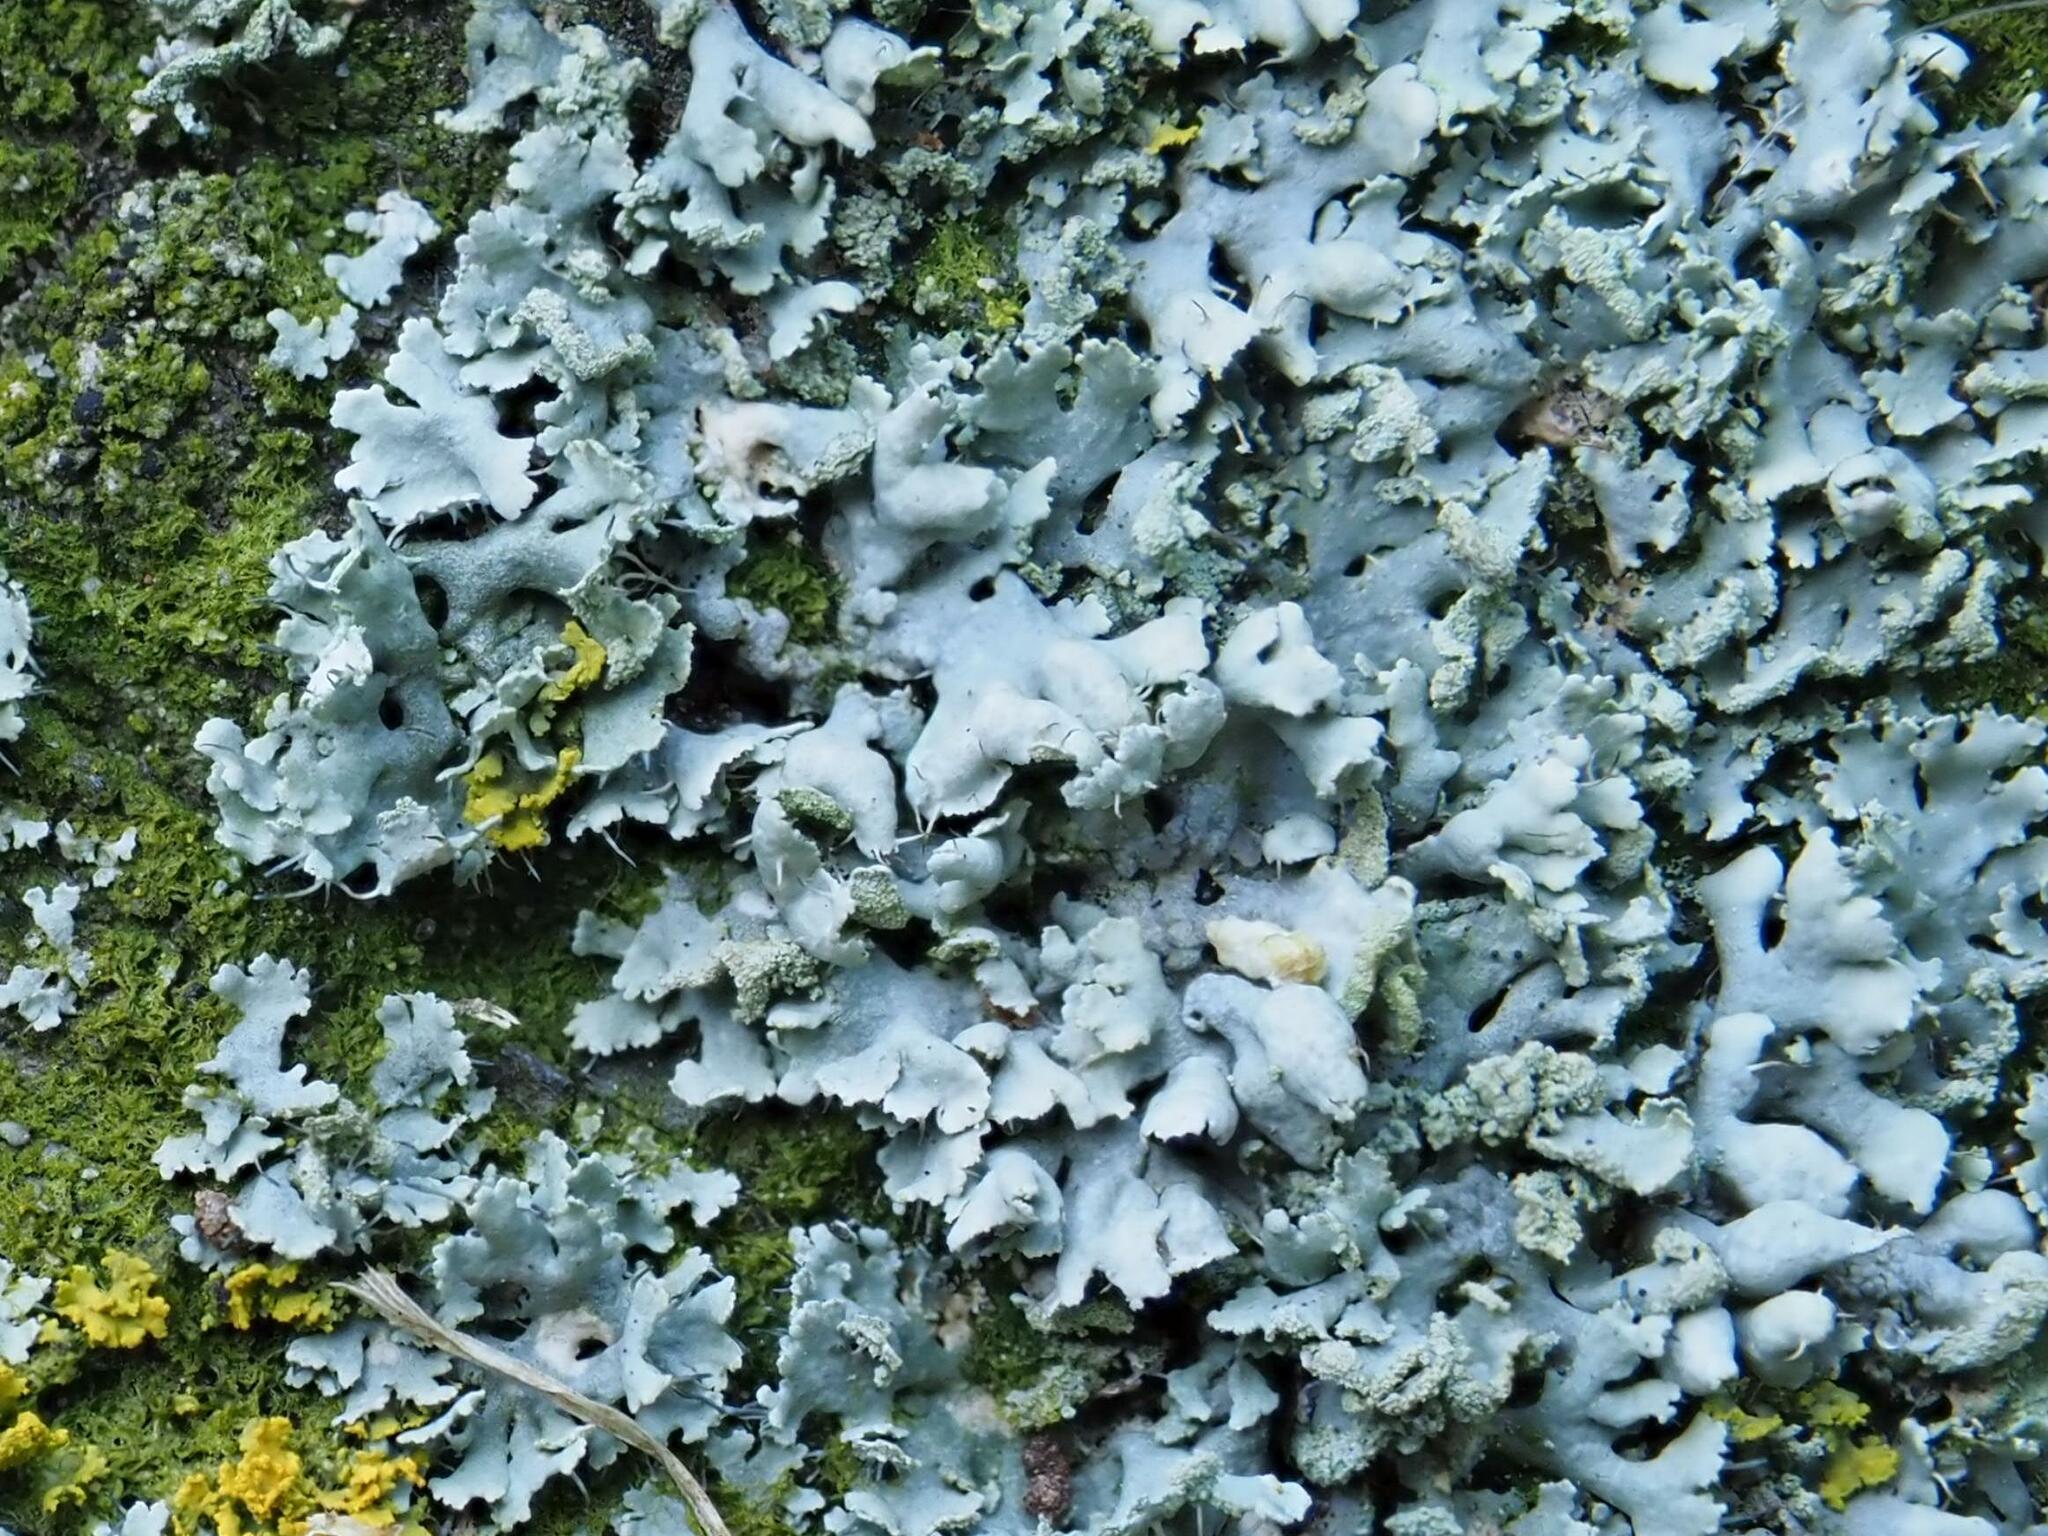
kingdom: Fungi
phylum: Ascomycota
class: Lecanoromycetes
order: Caliciales
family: Physciaceae
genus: Physcia
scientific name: Physcia adscendens
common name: Hooded rosette lichen
